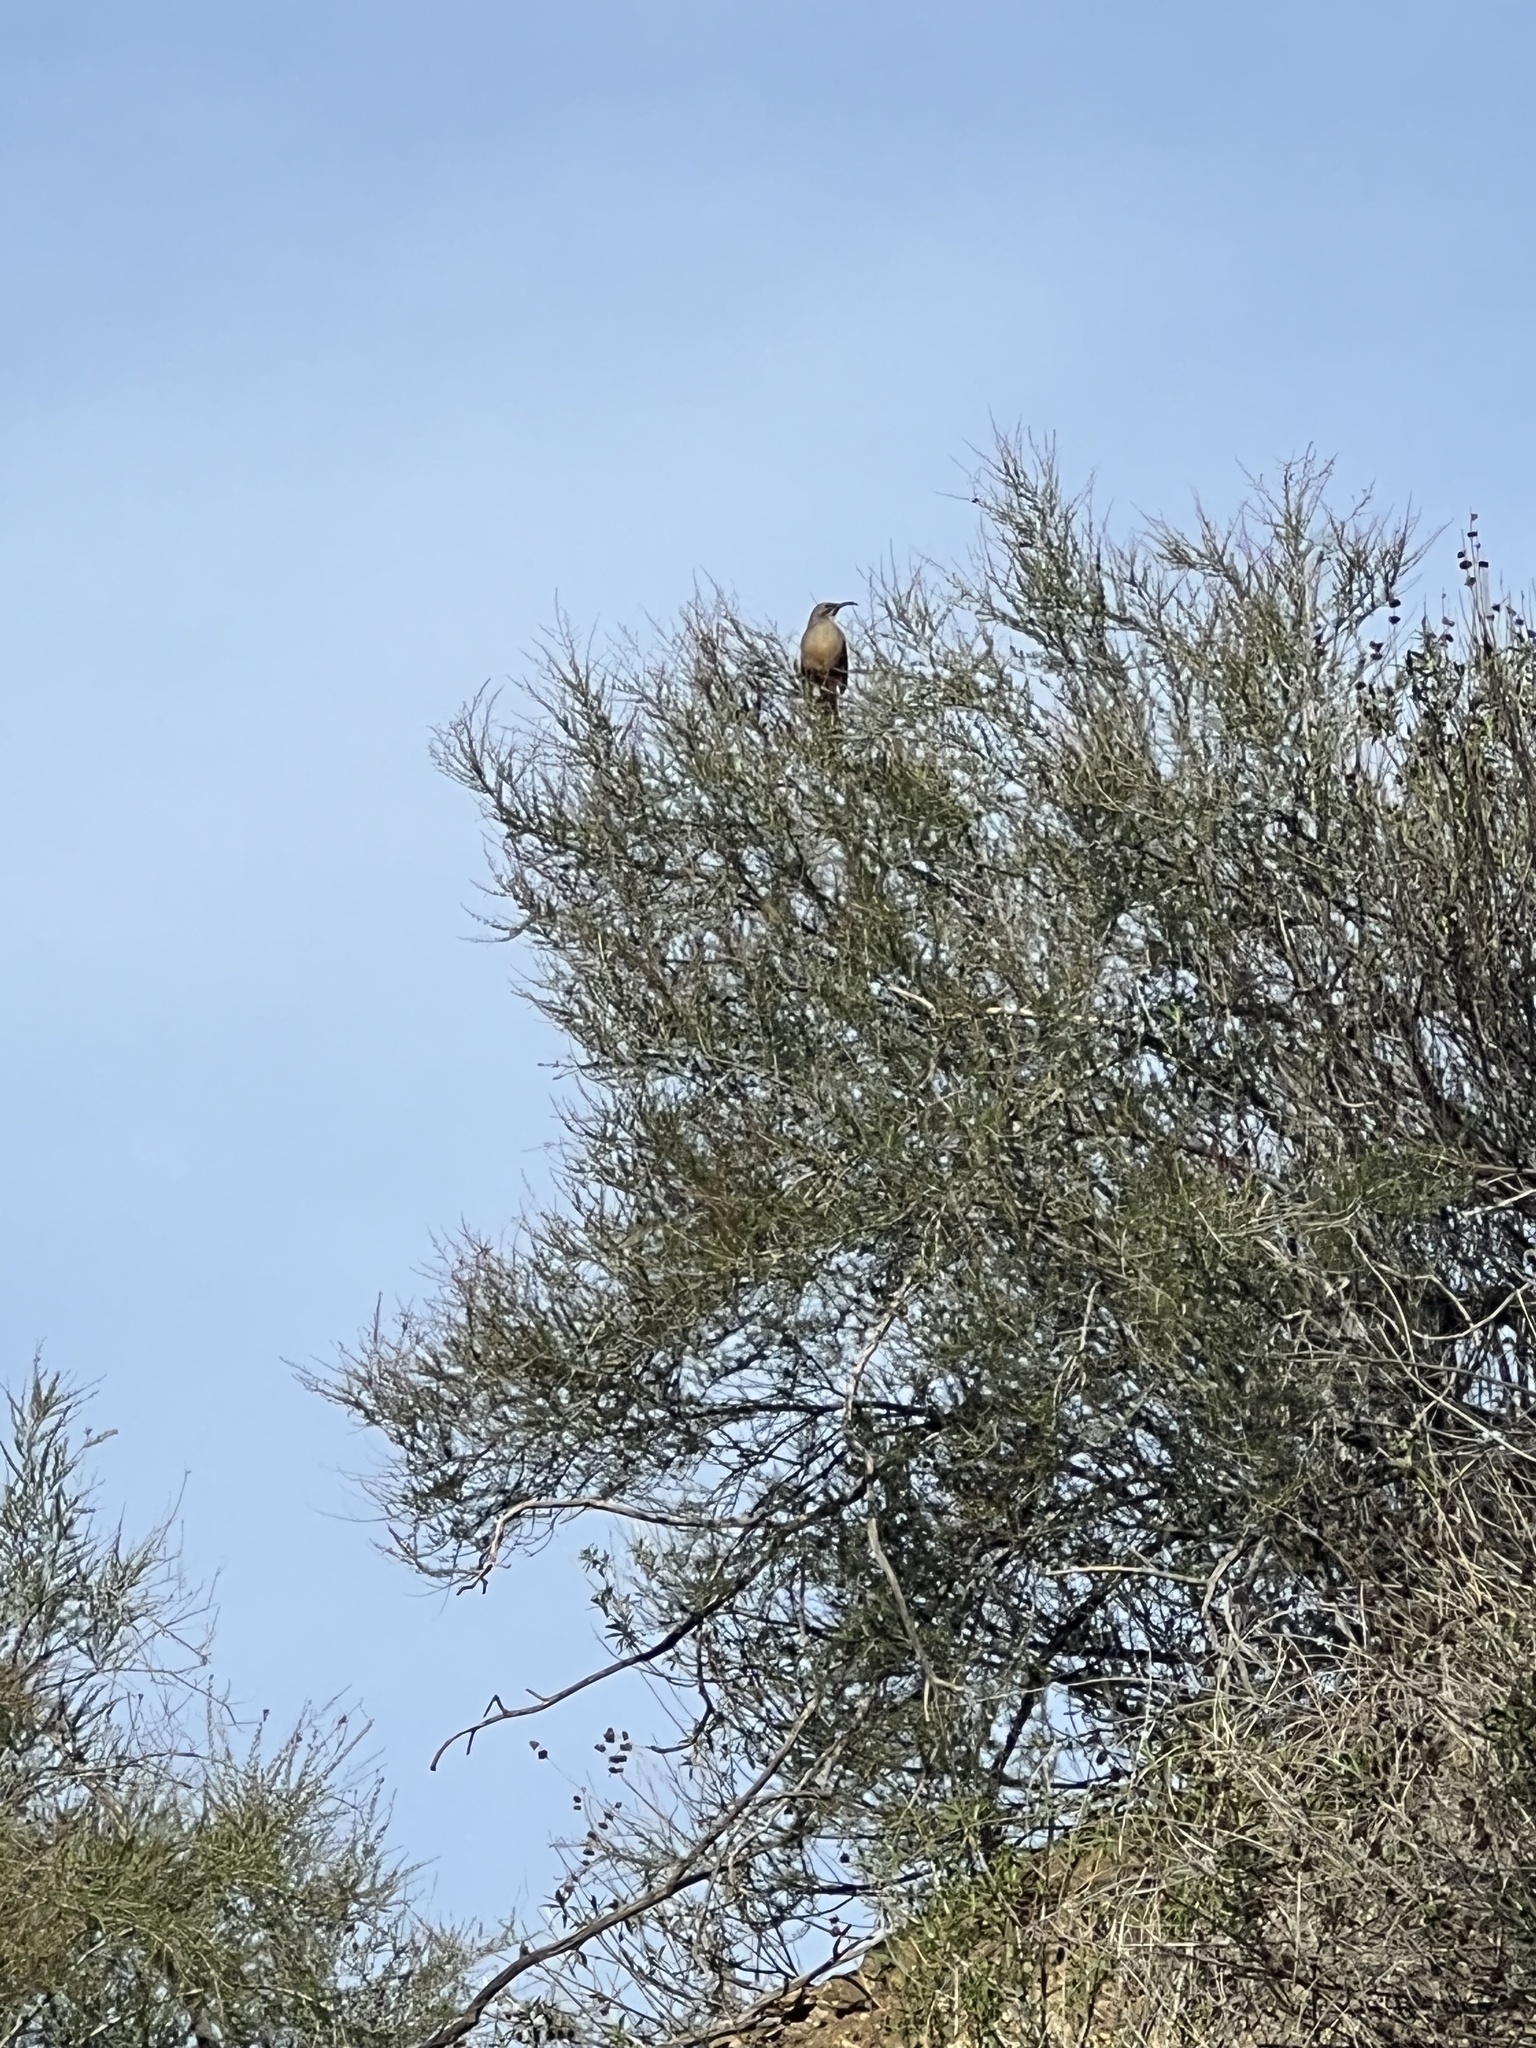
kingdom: Animalia
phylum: Chordata
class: Aves
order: Passeriformes
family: Mimidae
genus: Toxostoma
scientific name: Toxostoma redivivum
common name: California thrasher
